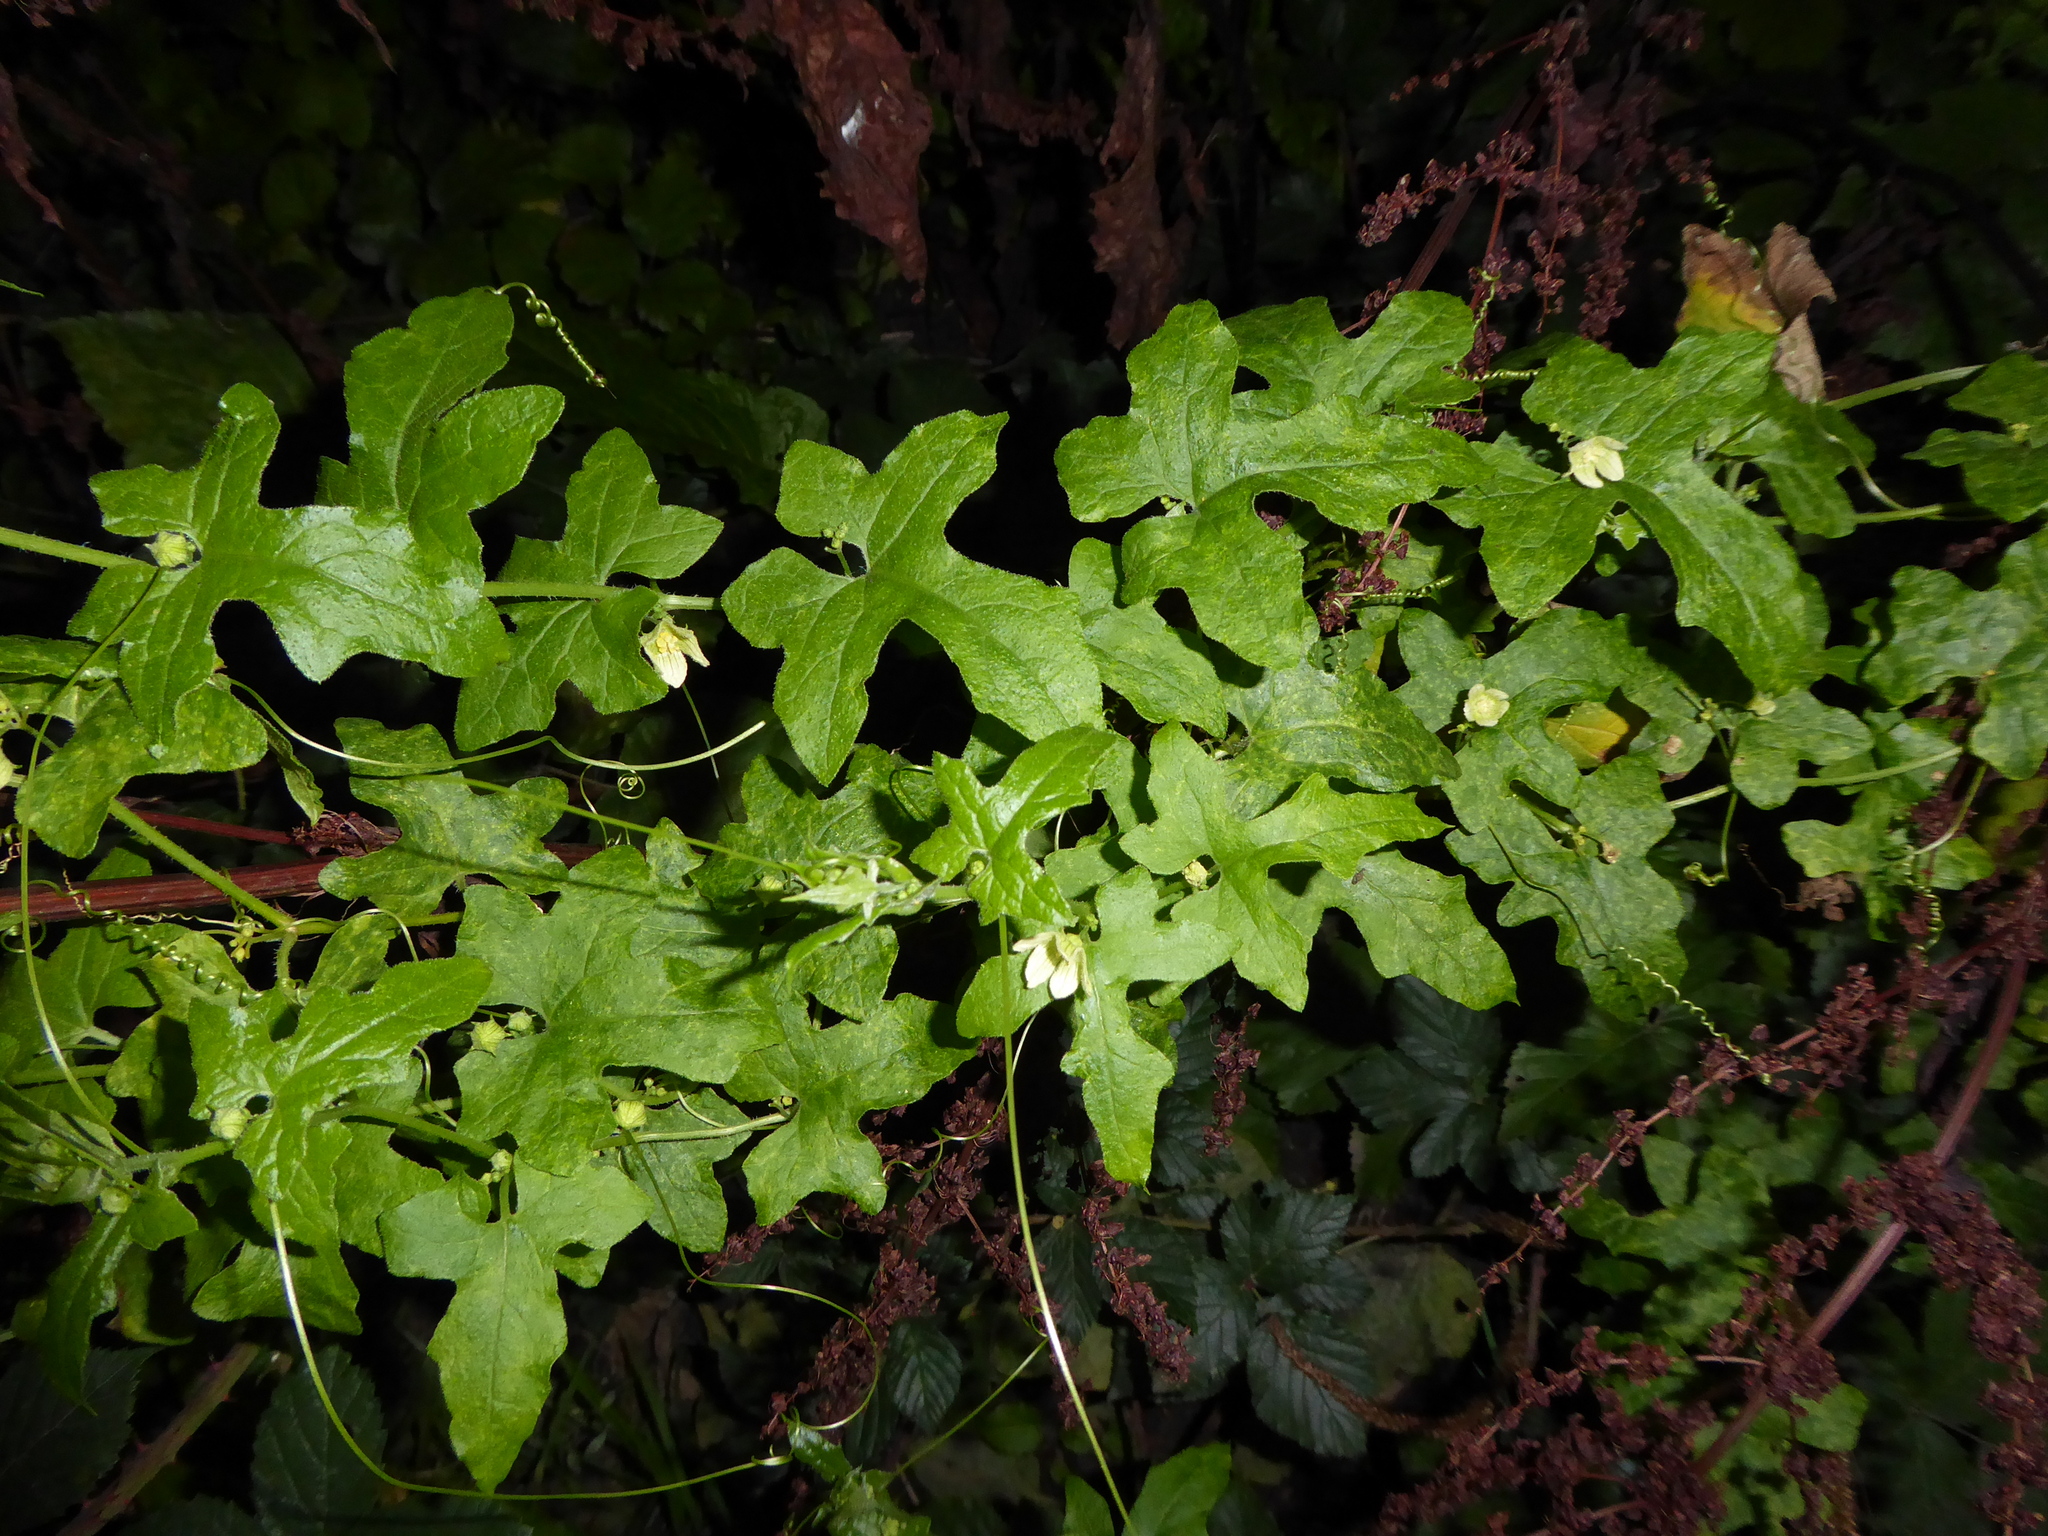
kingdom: Plantae
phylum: Tracheophyta
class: Magnoliopsida
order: Cucurbitales
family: Cucurbitaceae
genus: Bryonia
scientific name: Bryonia dioica
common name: White bryony
